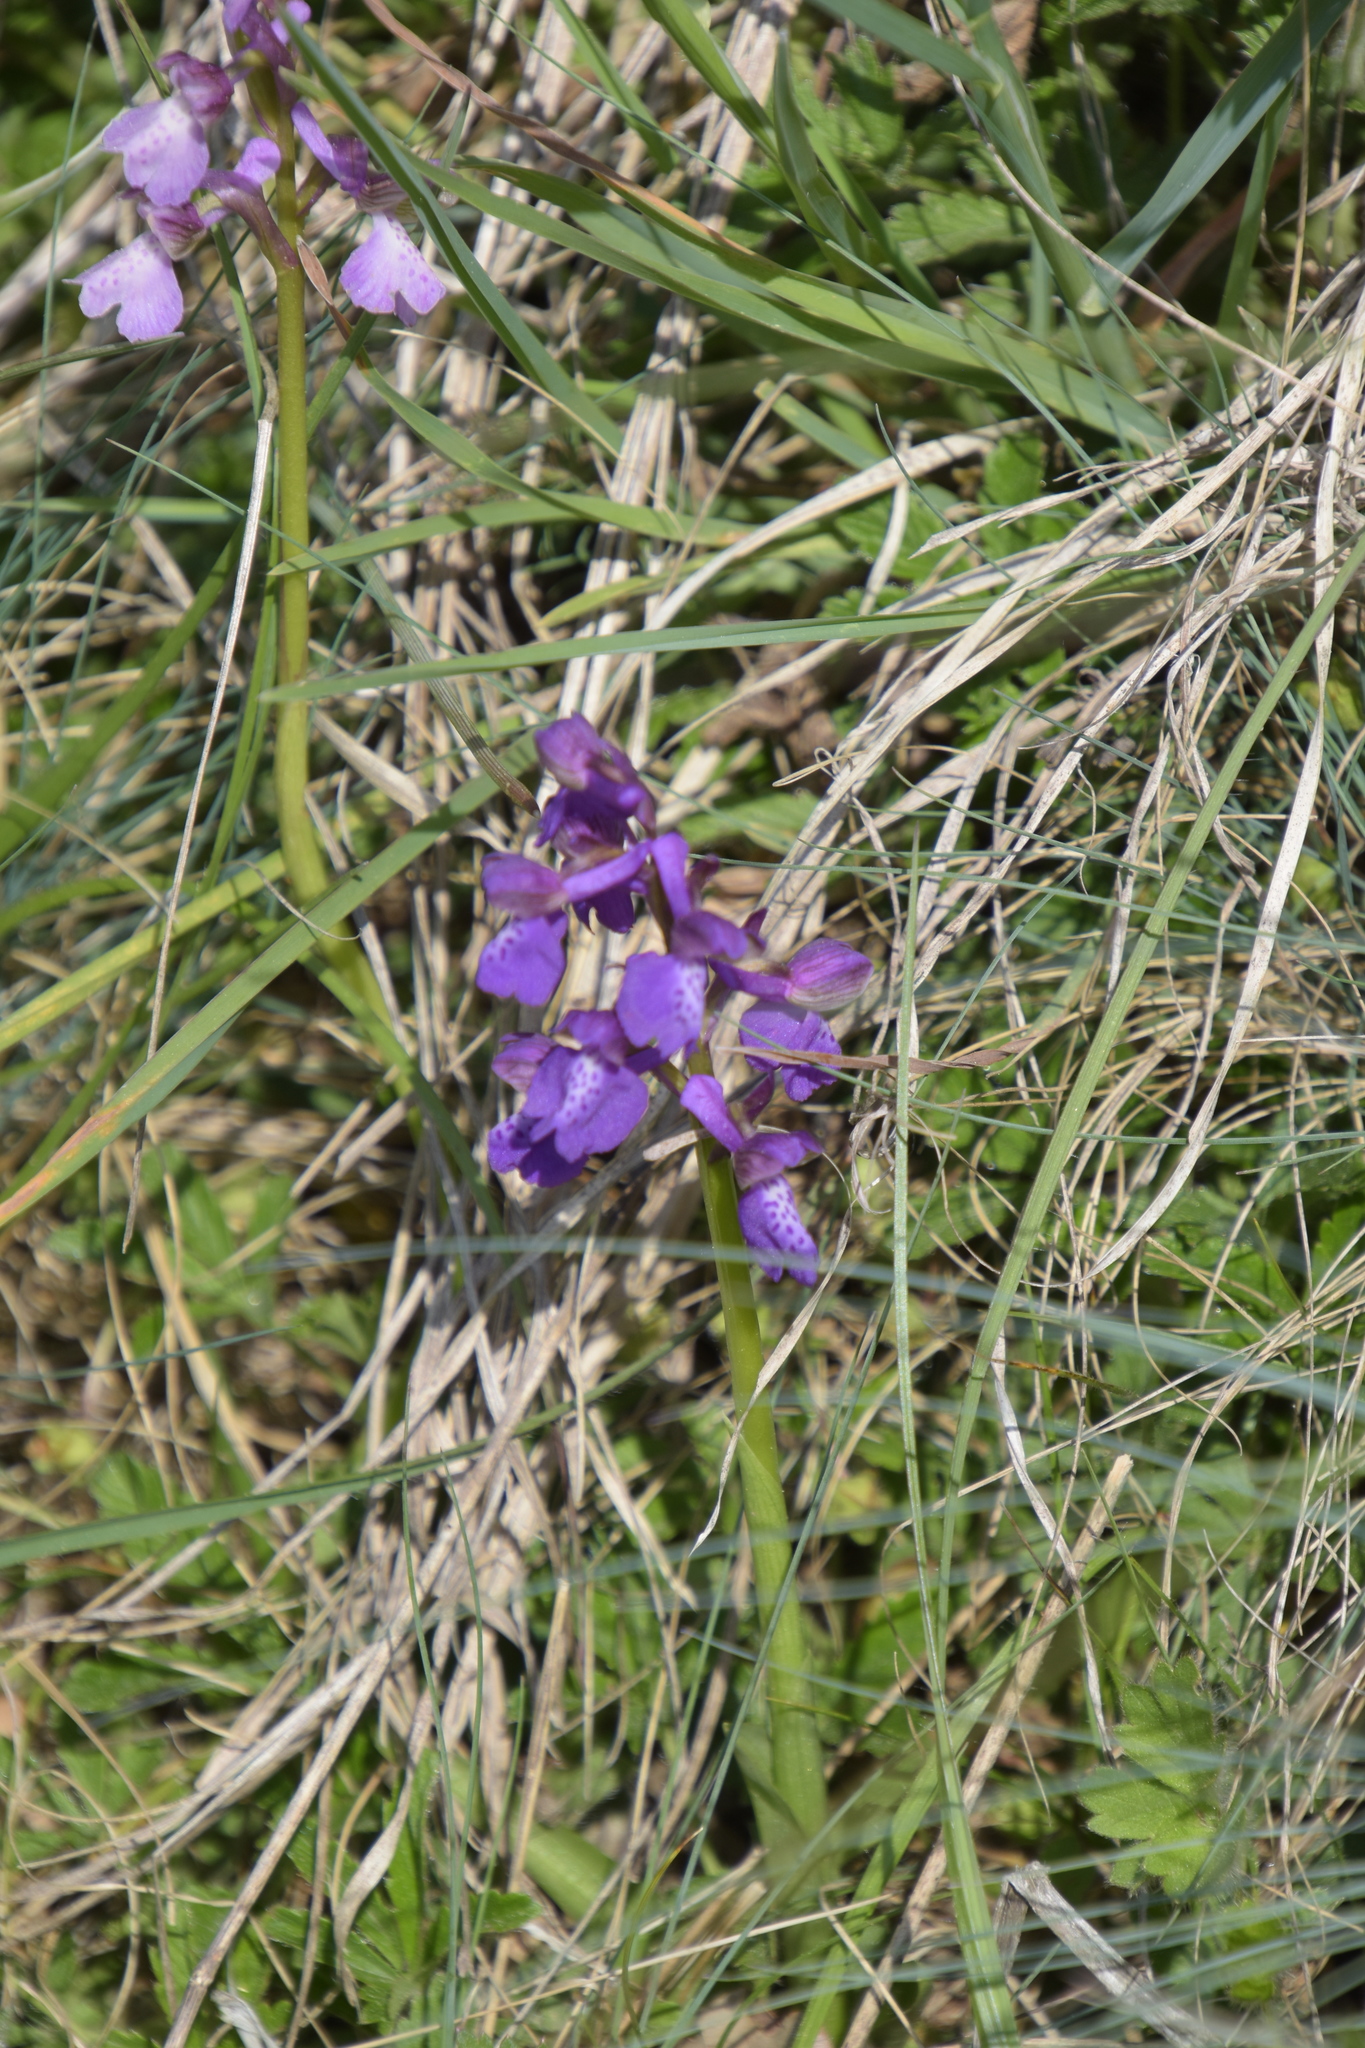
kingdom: Plantae
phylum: Tracheophyta
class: Liliopsida
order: Asparagales
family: Orchidaceae
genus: Anacamptis
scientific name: Anacamptis morio
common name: Green-winged orchid
